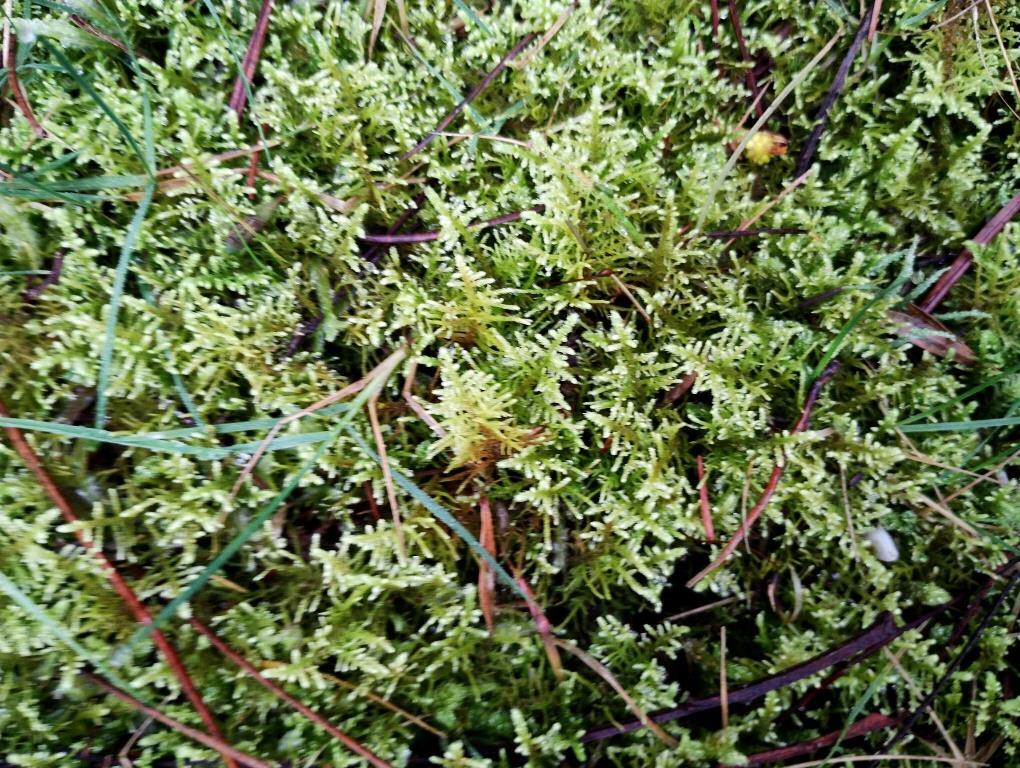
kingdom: Plantae
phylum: Bryophyta
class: Bryopsida
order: Hypnales
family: Thuidiaceae
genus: Thuidiopsis
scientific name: Thuidiopsis sparsa
